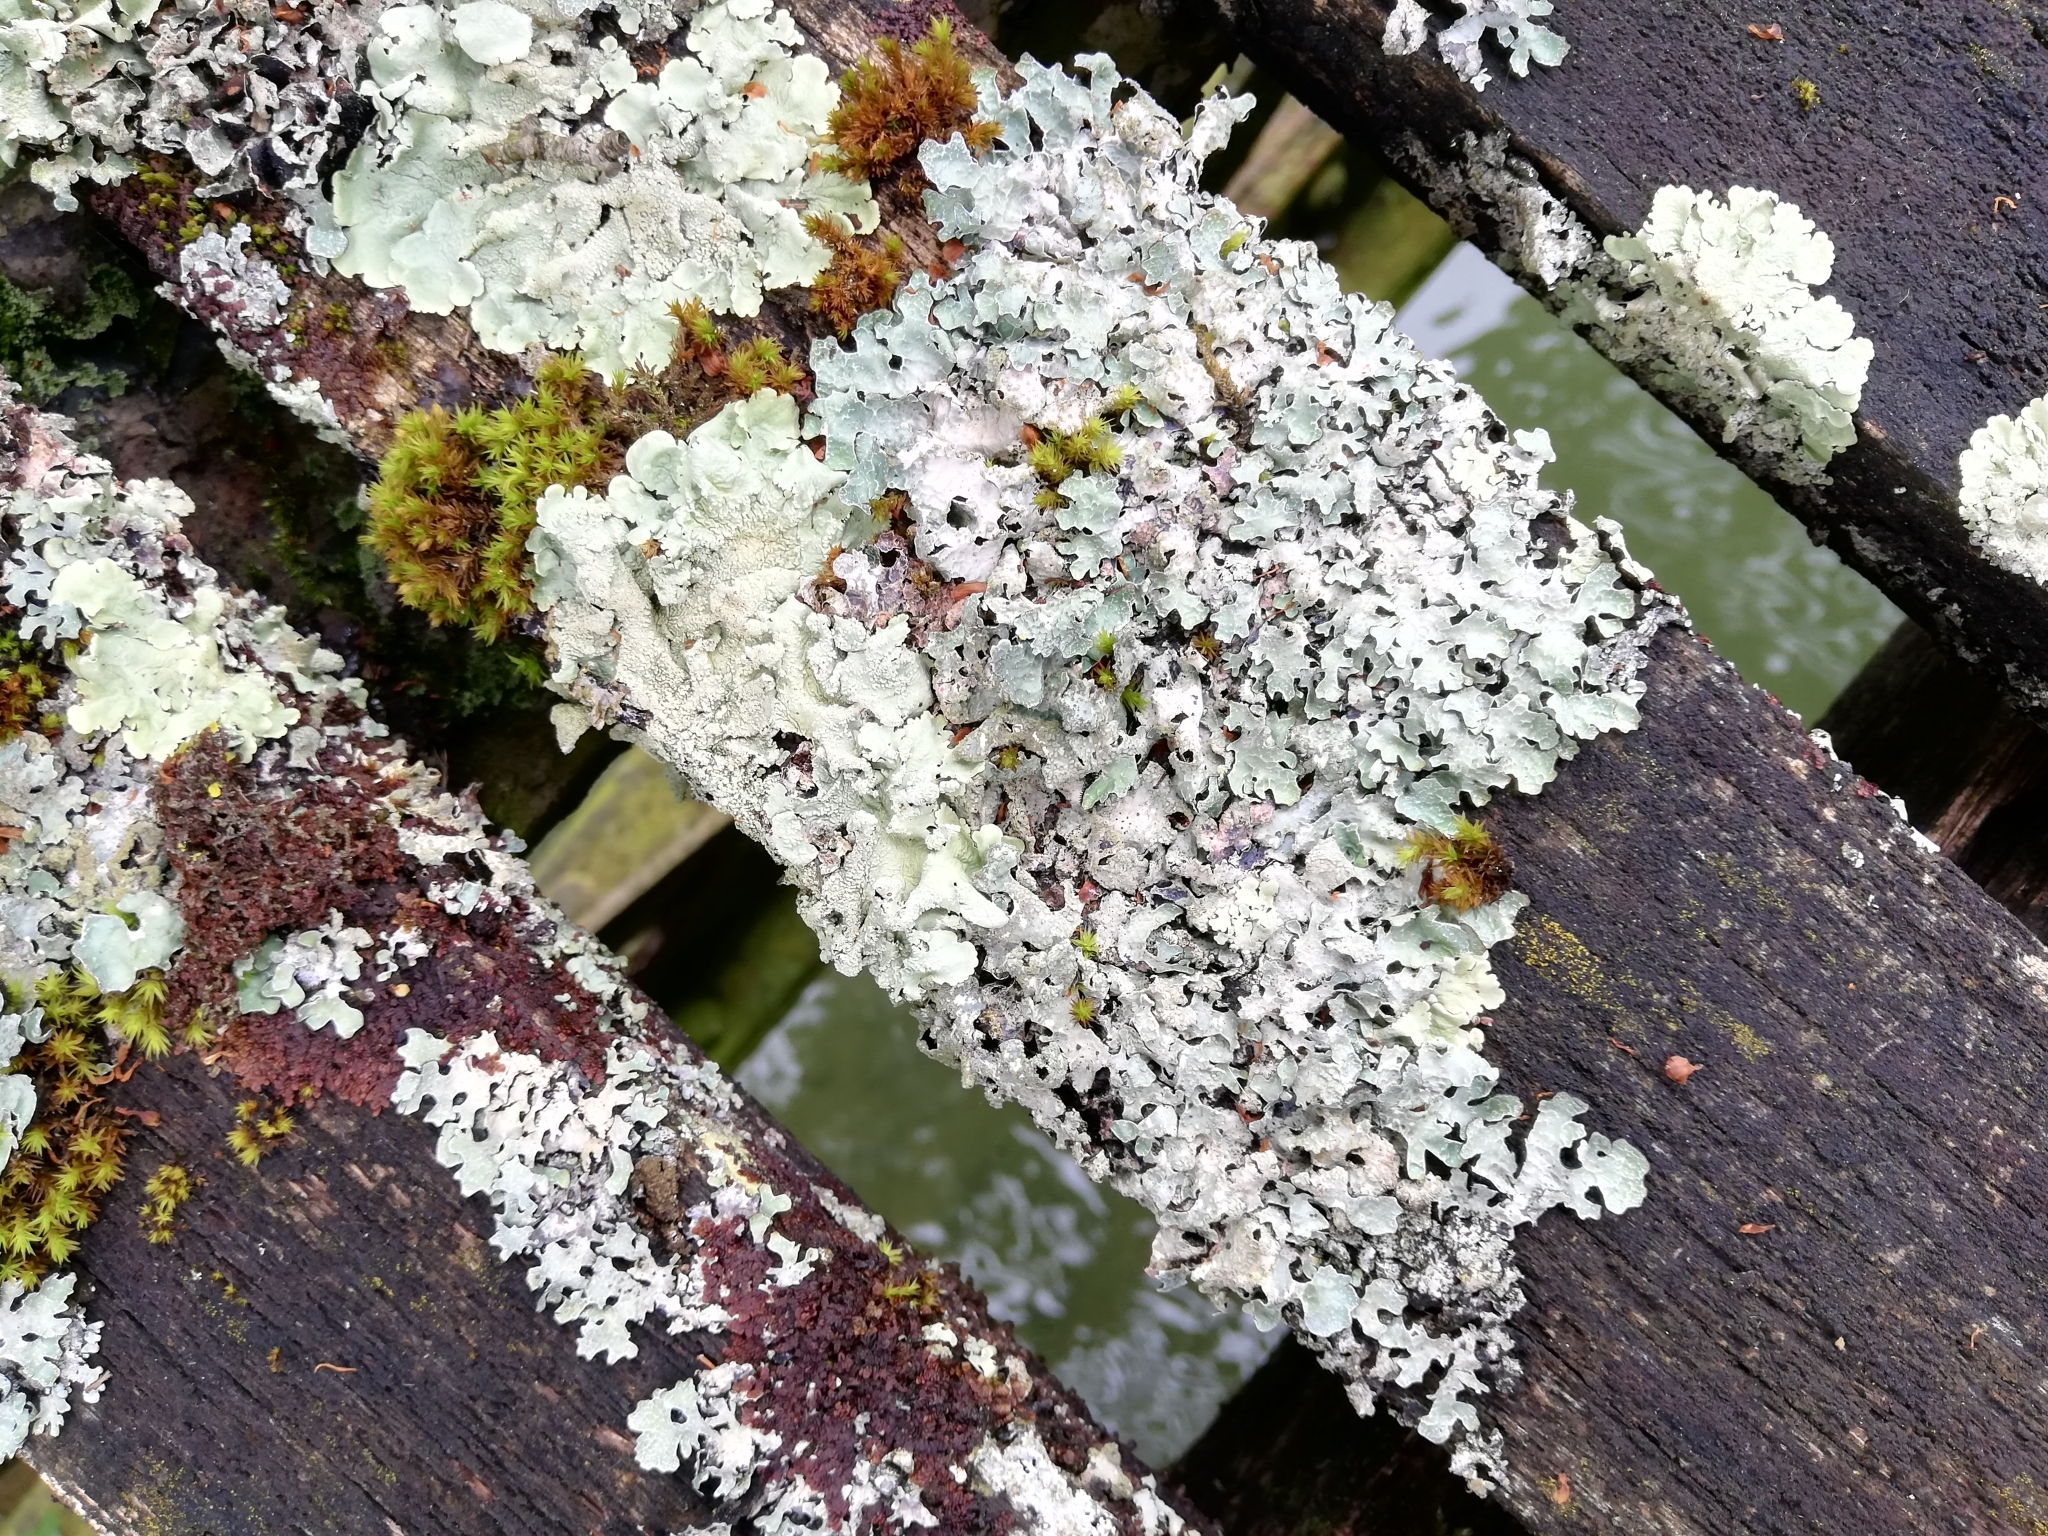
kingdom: Fungi
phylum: Ascomycota
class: Lecanoromycetes
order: Lecanorales
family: Parmeliaceae
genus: Flavoparmelia
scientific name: Flavoparmelia caperata
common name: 40-mile per hour lichen
